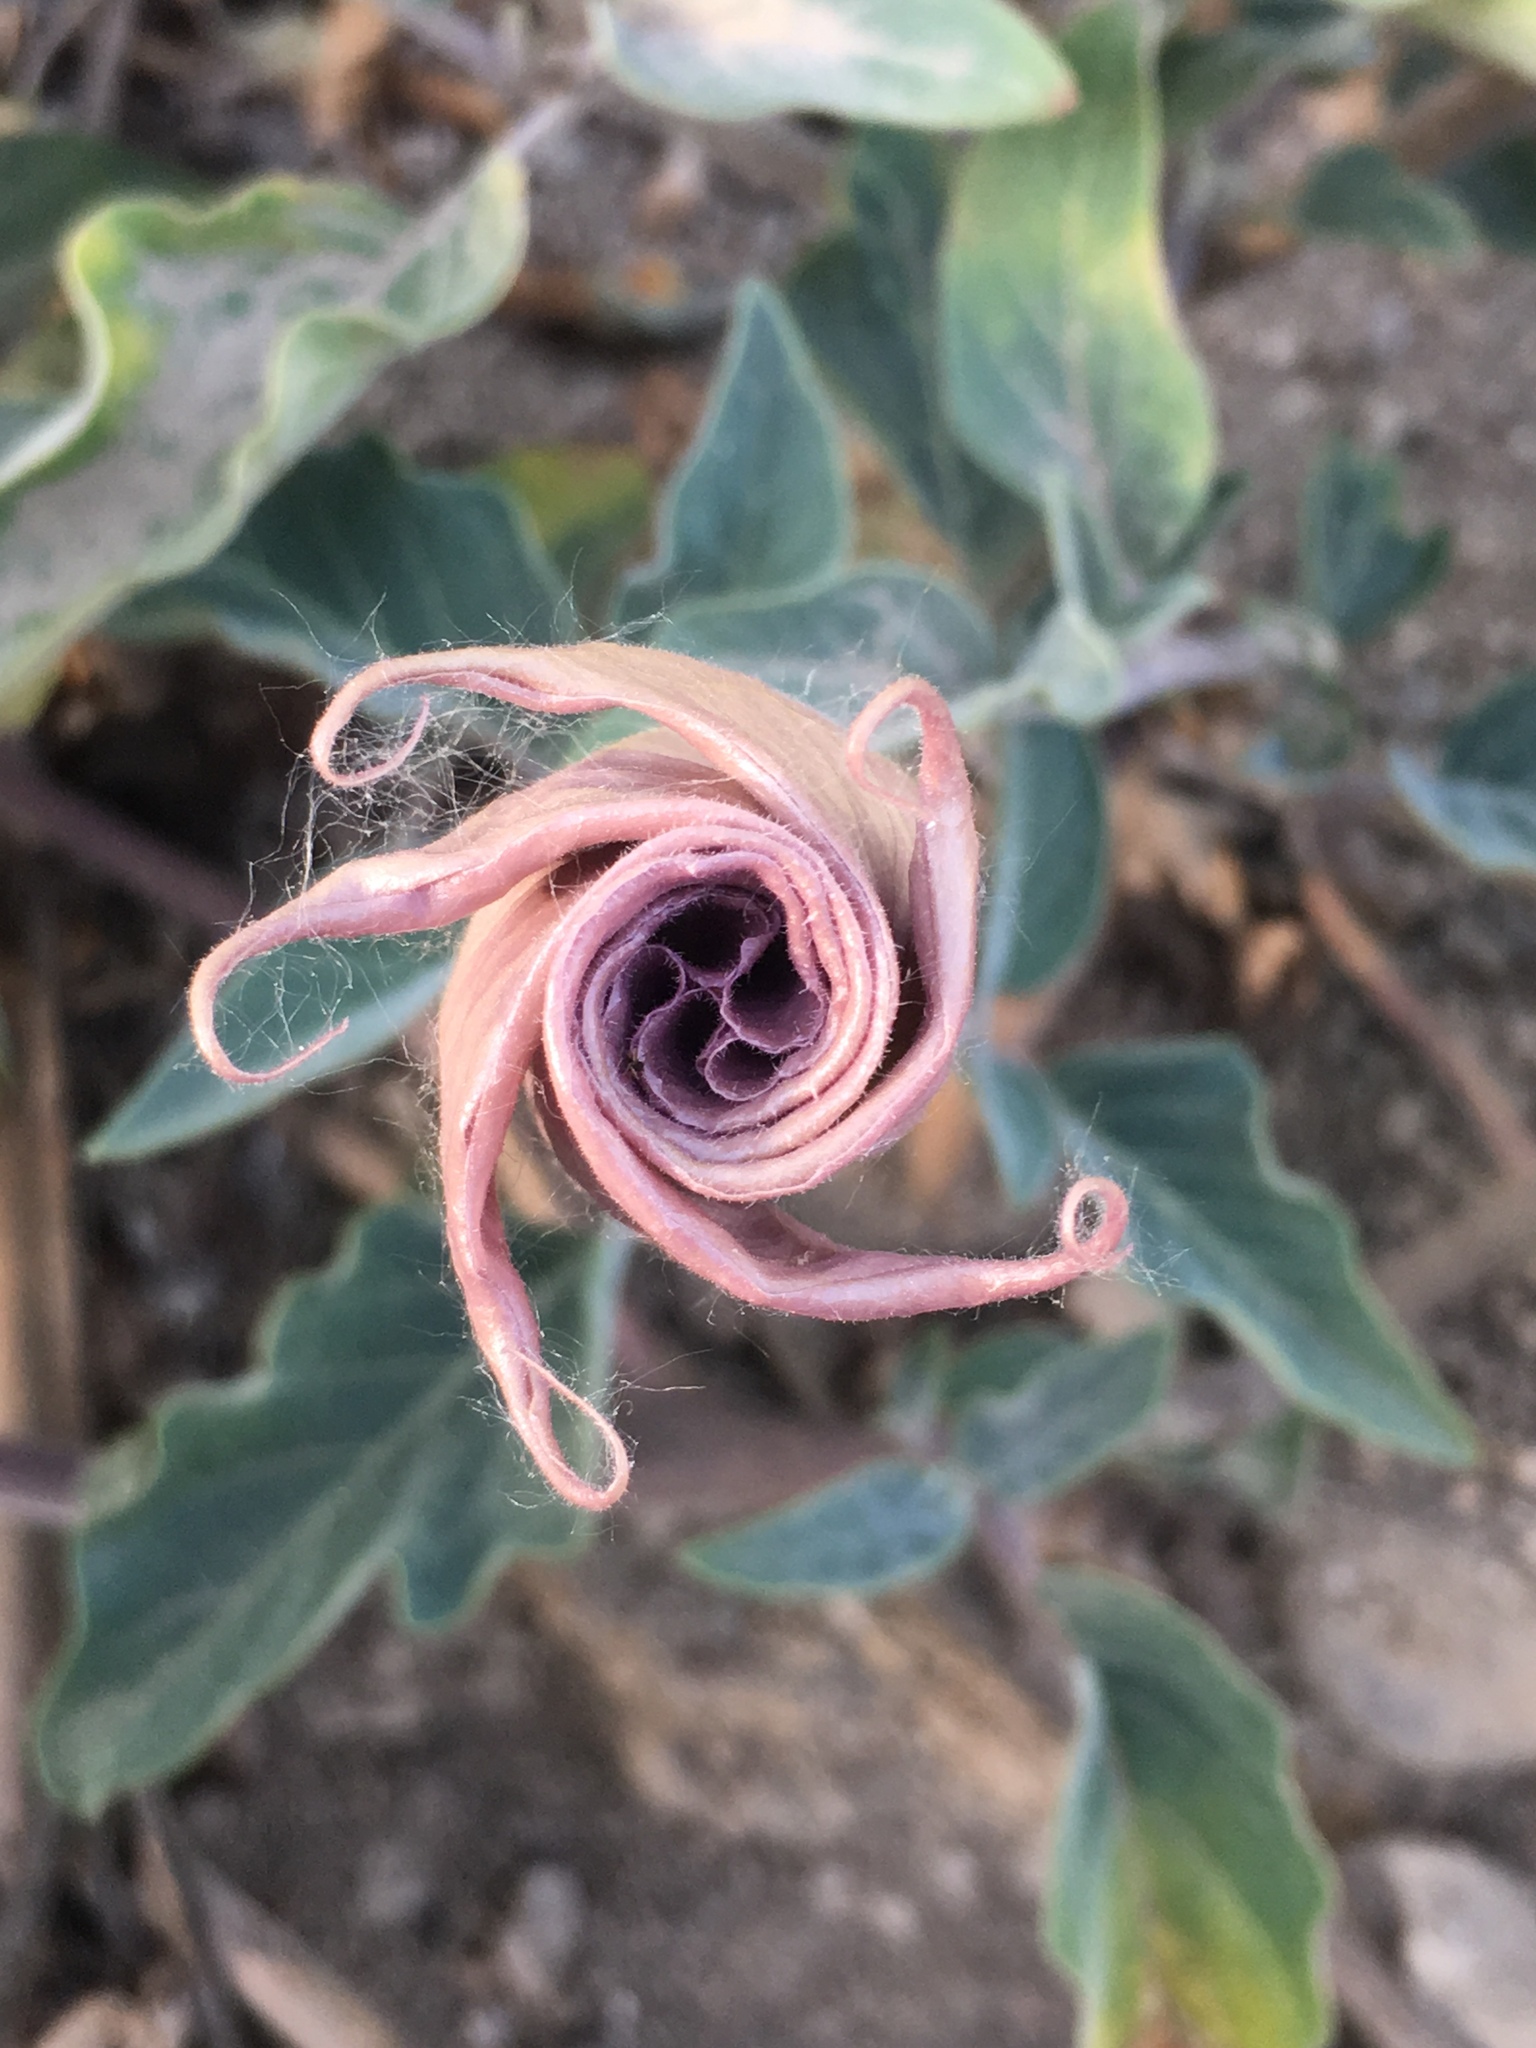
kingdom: Plantae
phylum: Tracheophyta
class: Magnoliopsida
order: Solanales
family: Solanaceae
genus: Datura
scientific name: Datura wrightii
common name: Sacred thorn-apple
